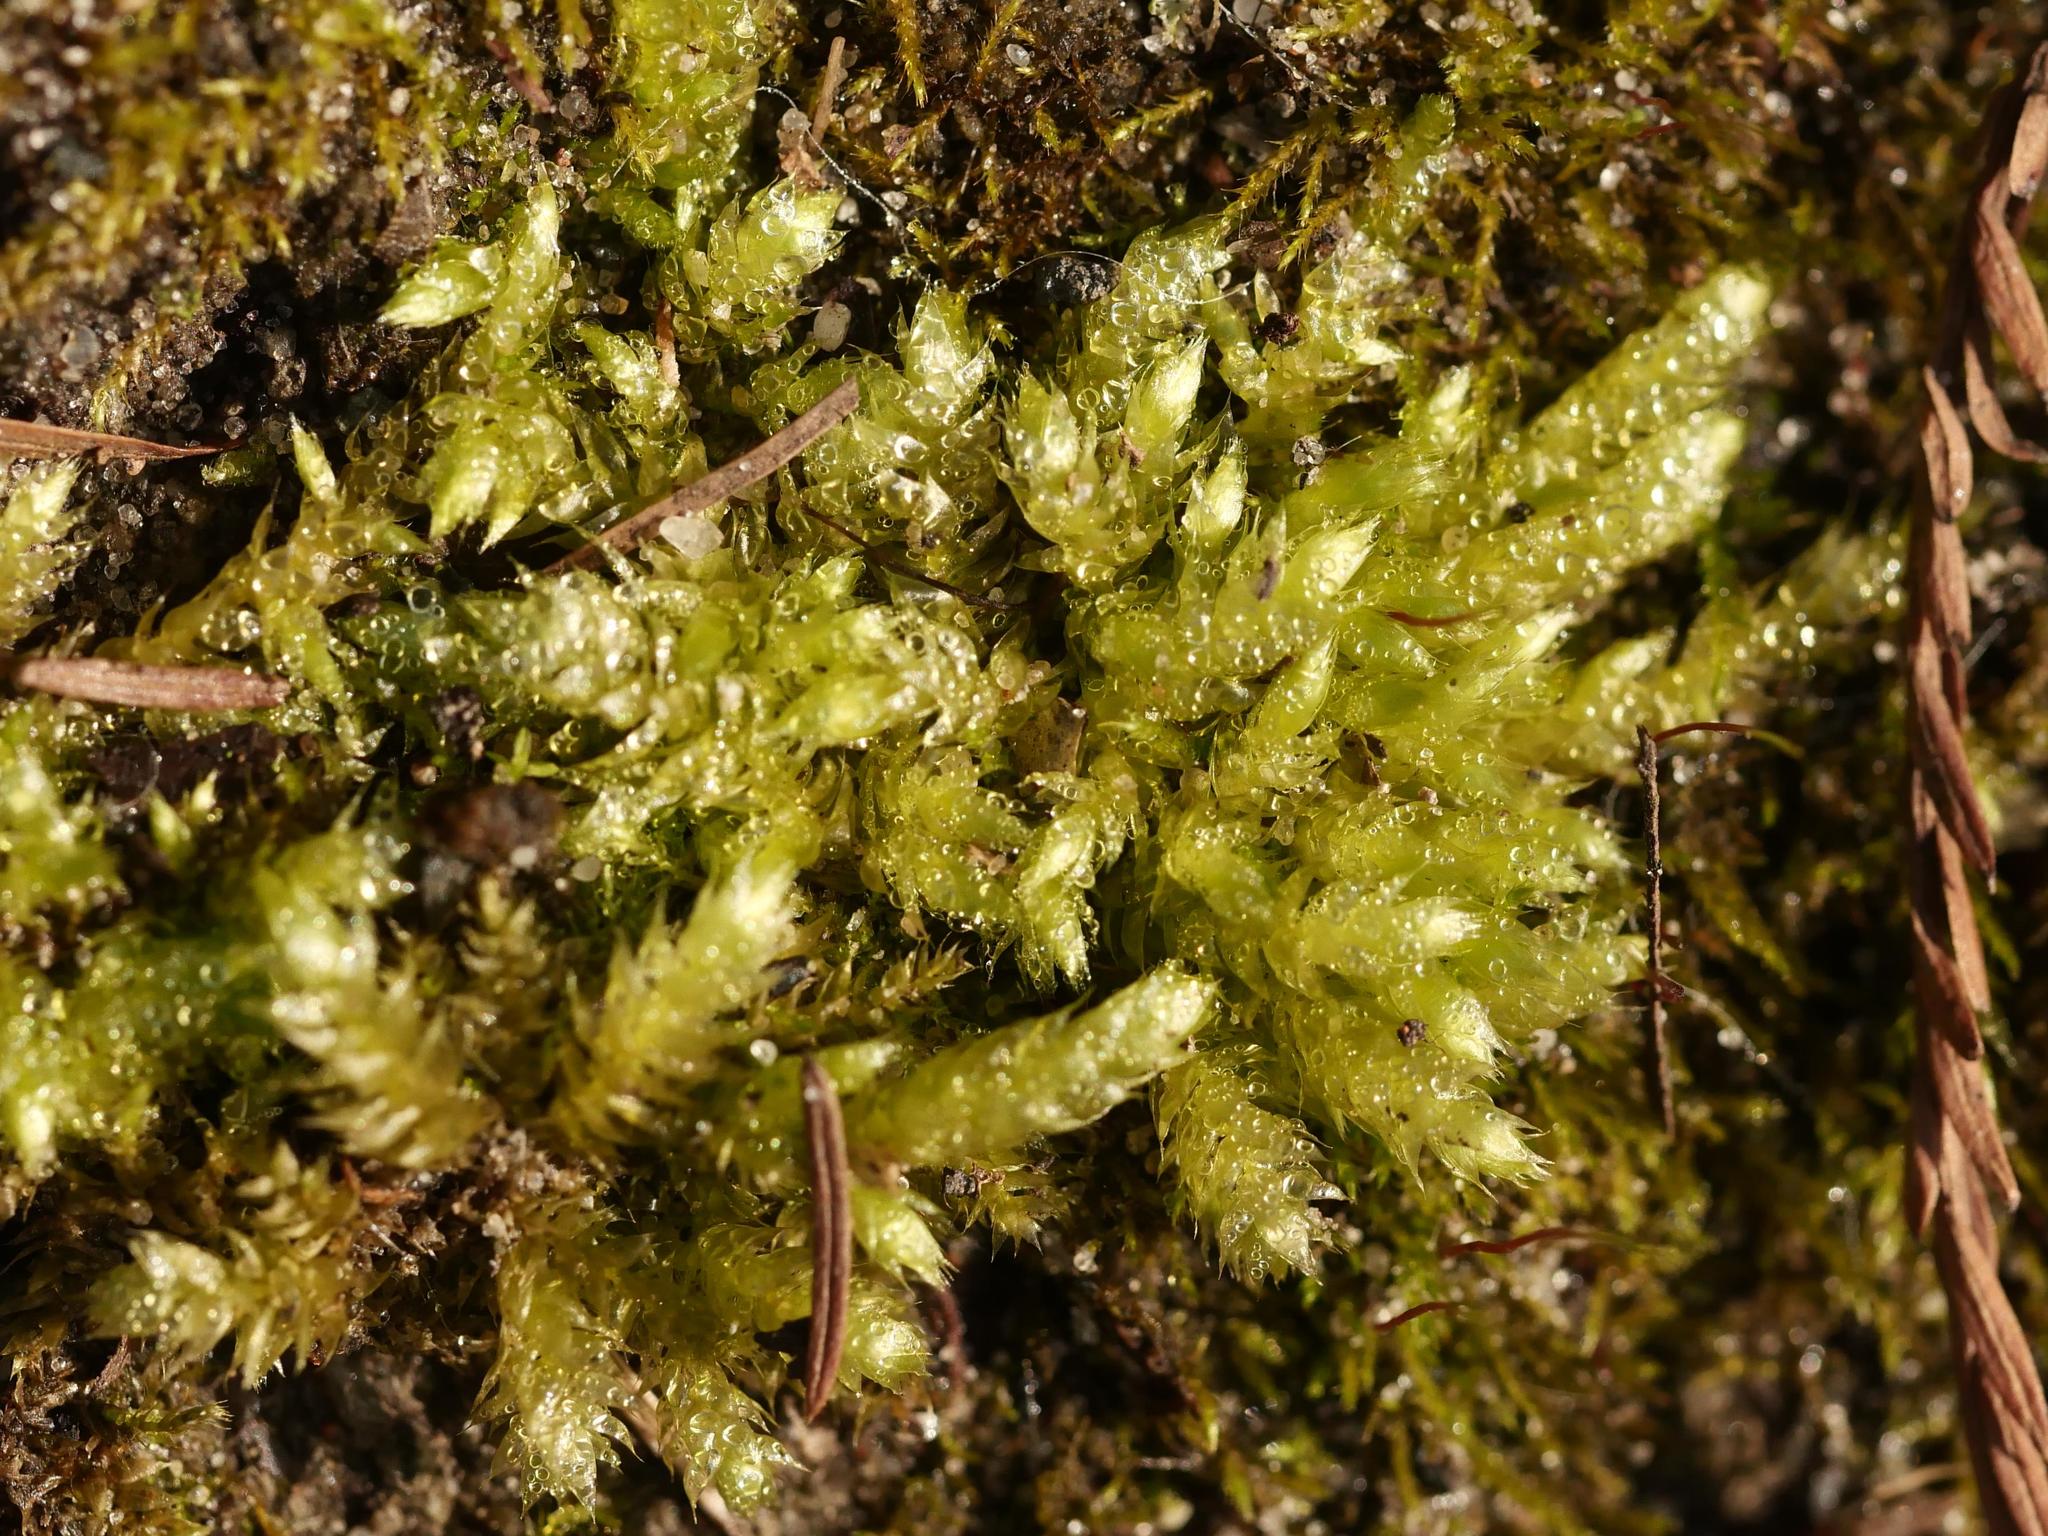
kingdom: Plantae
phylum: Bryophyta
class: Bryopsida
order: Hypnales
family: Brachytheciaceae
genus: Brachythecium
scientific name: Brachythecium rutabulum
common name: Rough-stalked feather-moss
